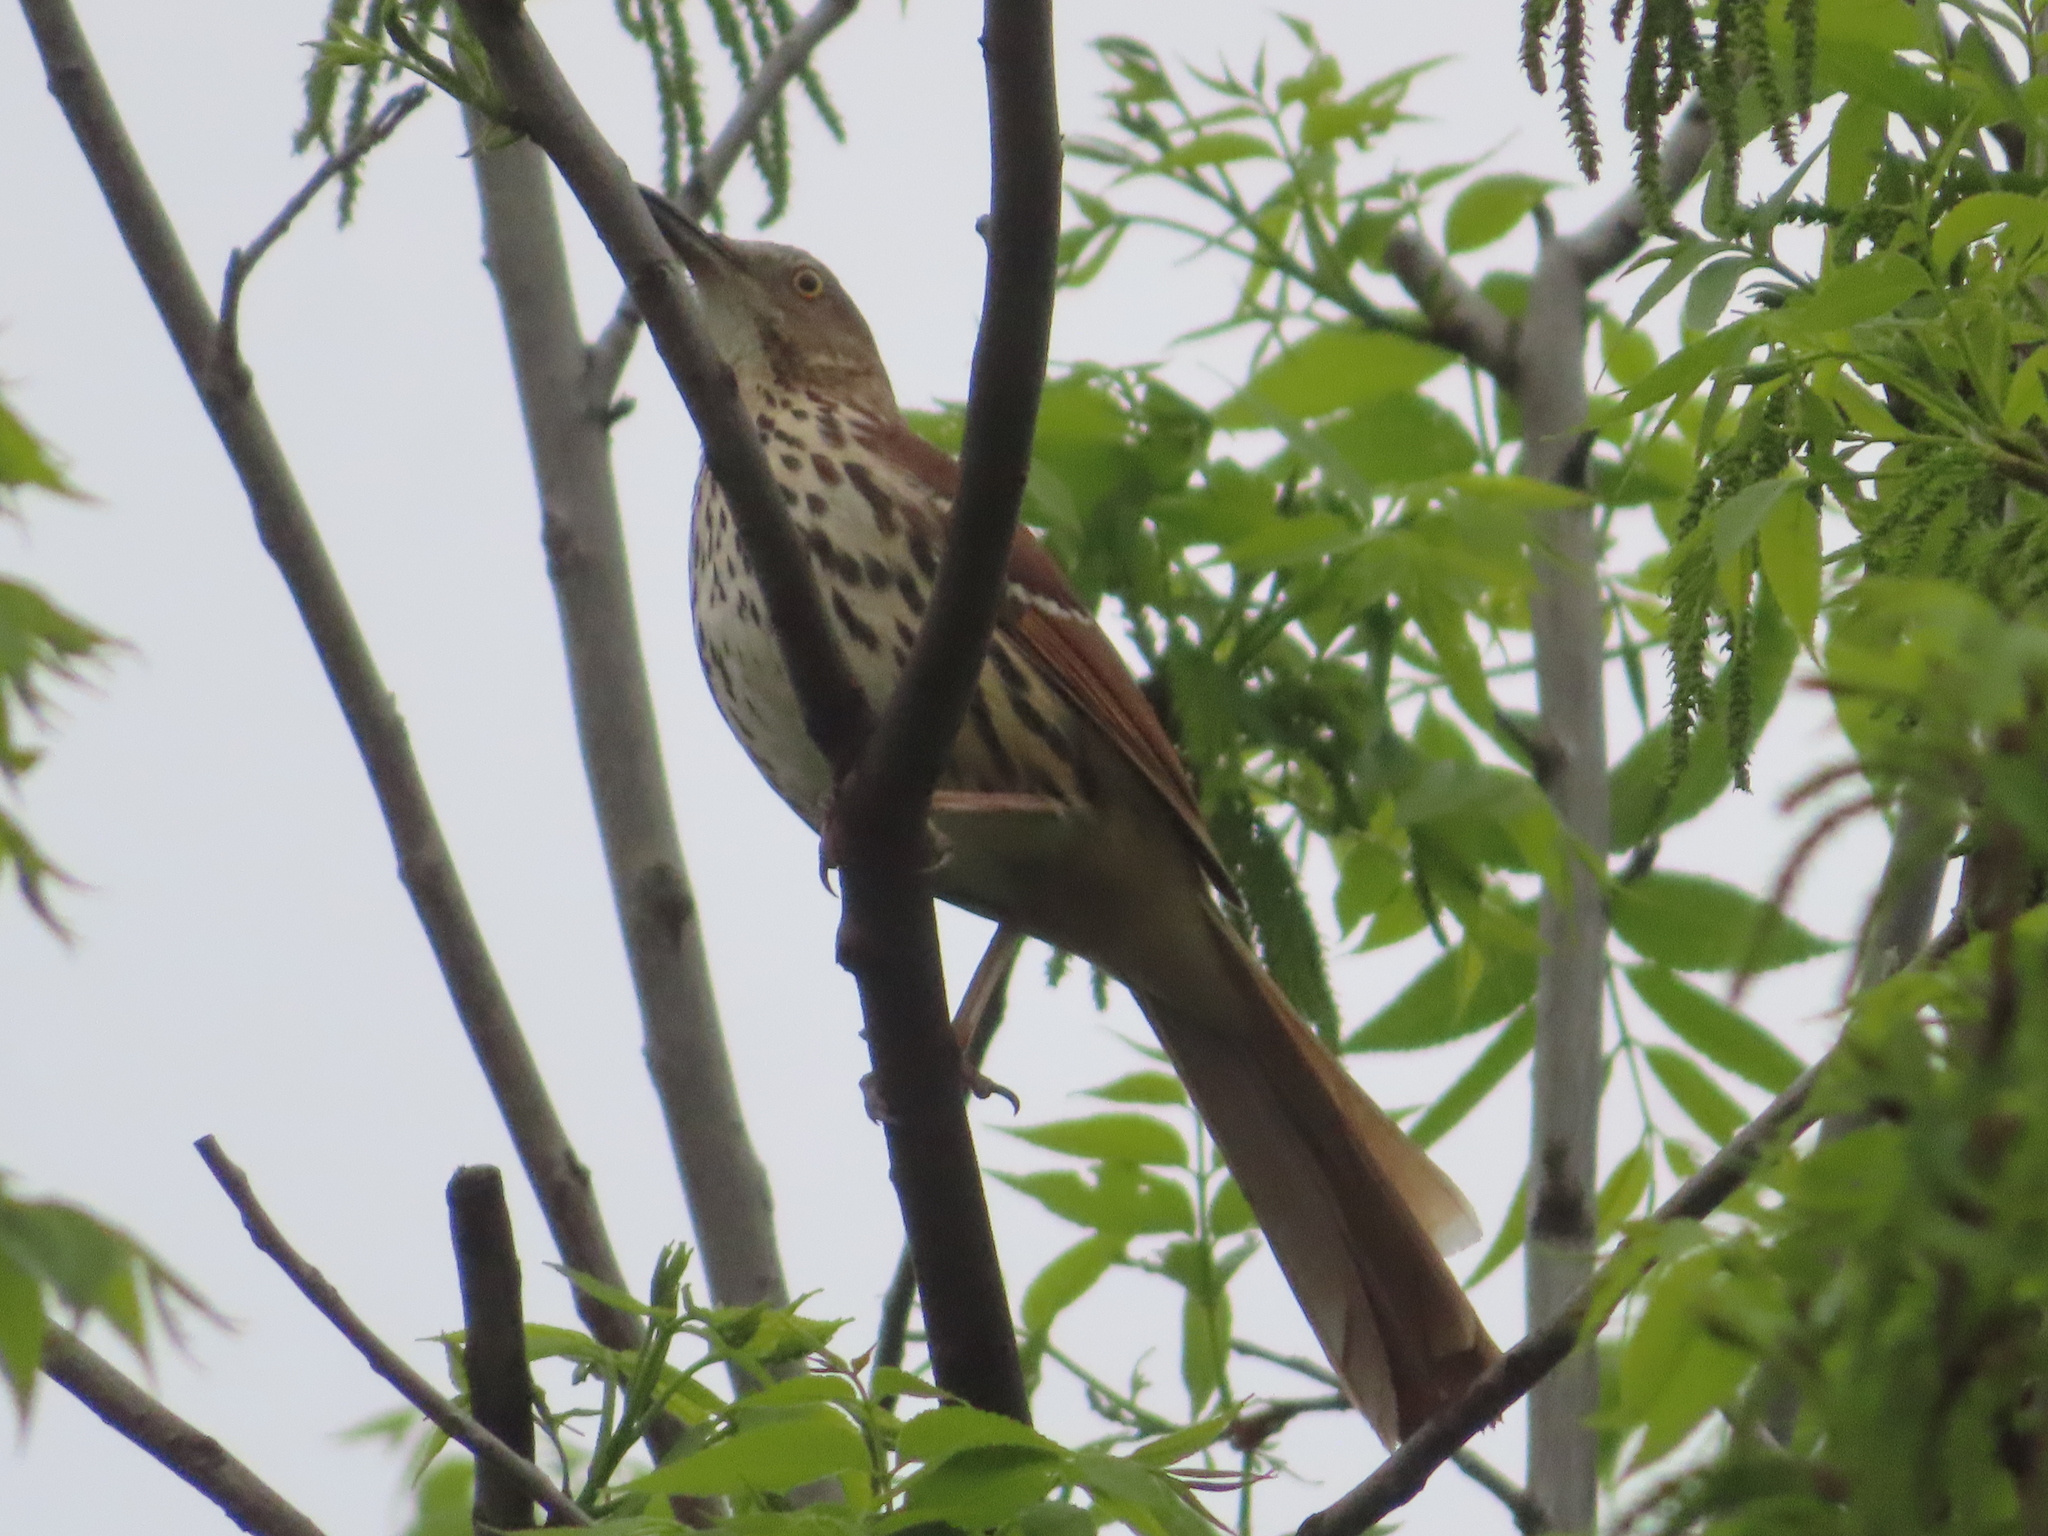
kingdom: Animalia
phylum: Chordata
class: Aves
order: Passeriformes
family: Mimidae
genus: Toxostoma
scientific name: Toxostoma rufum
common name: Brown thrasher
